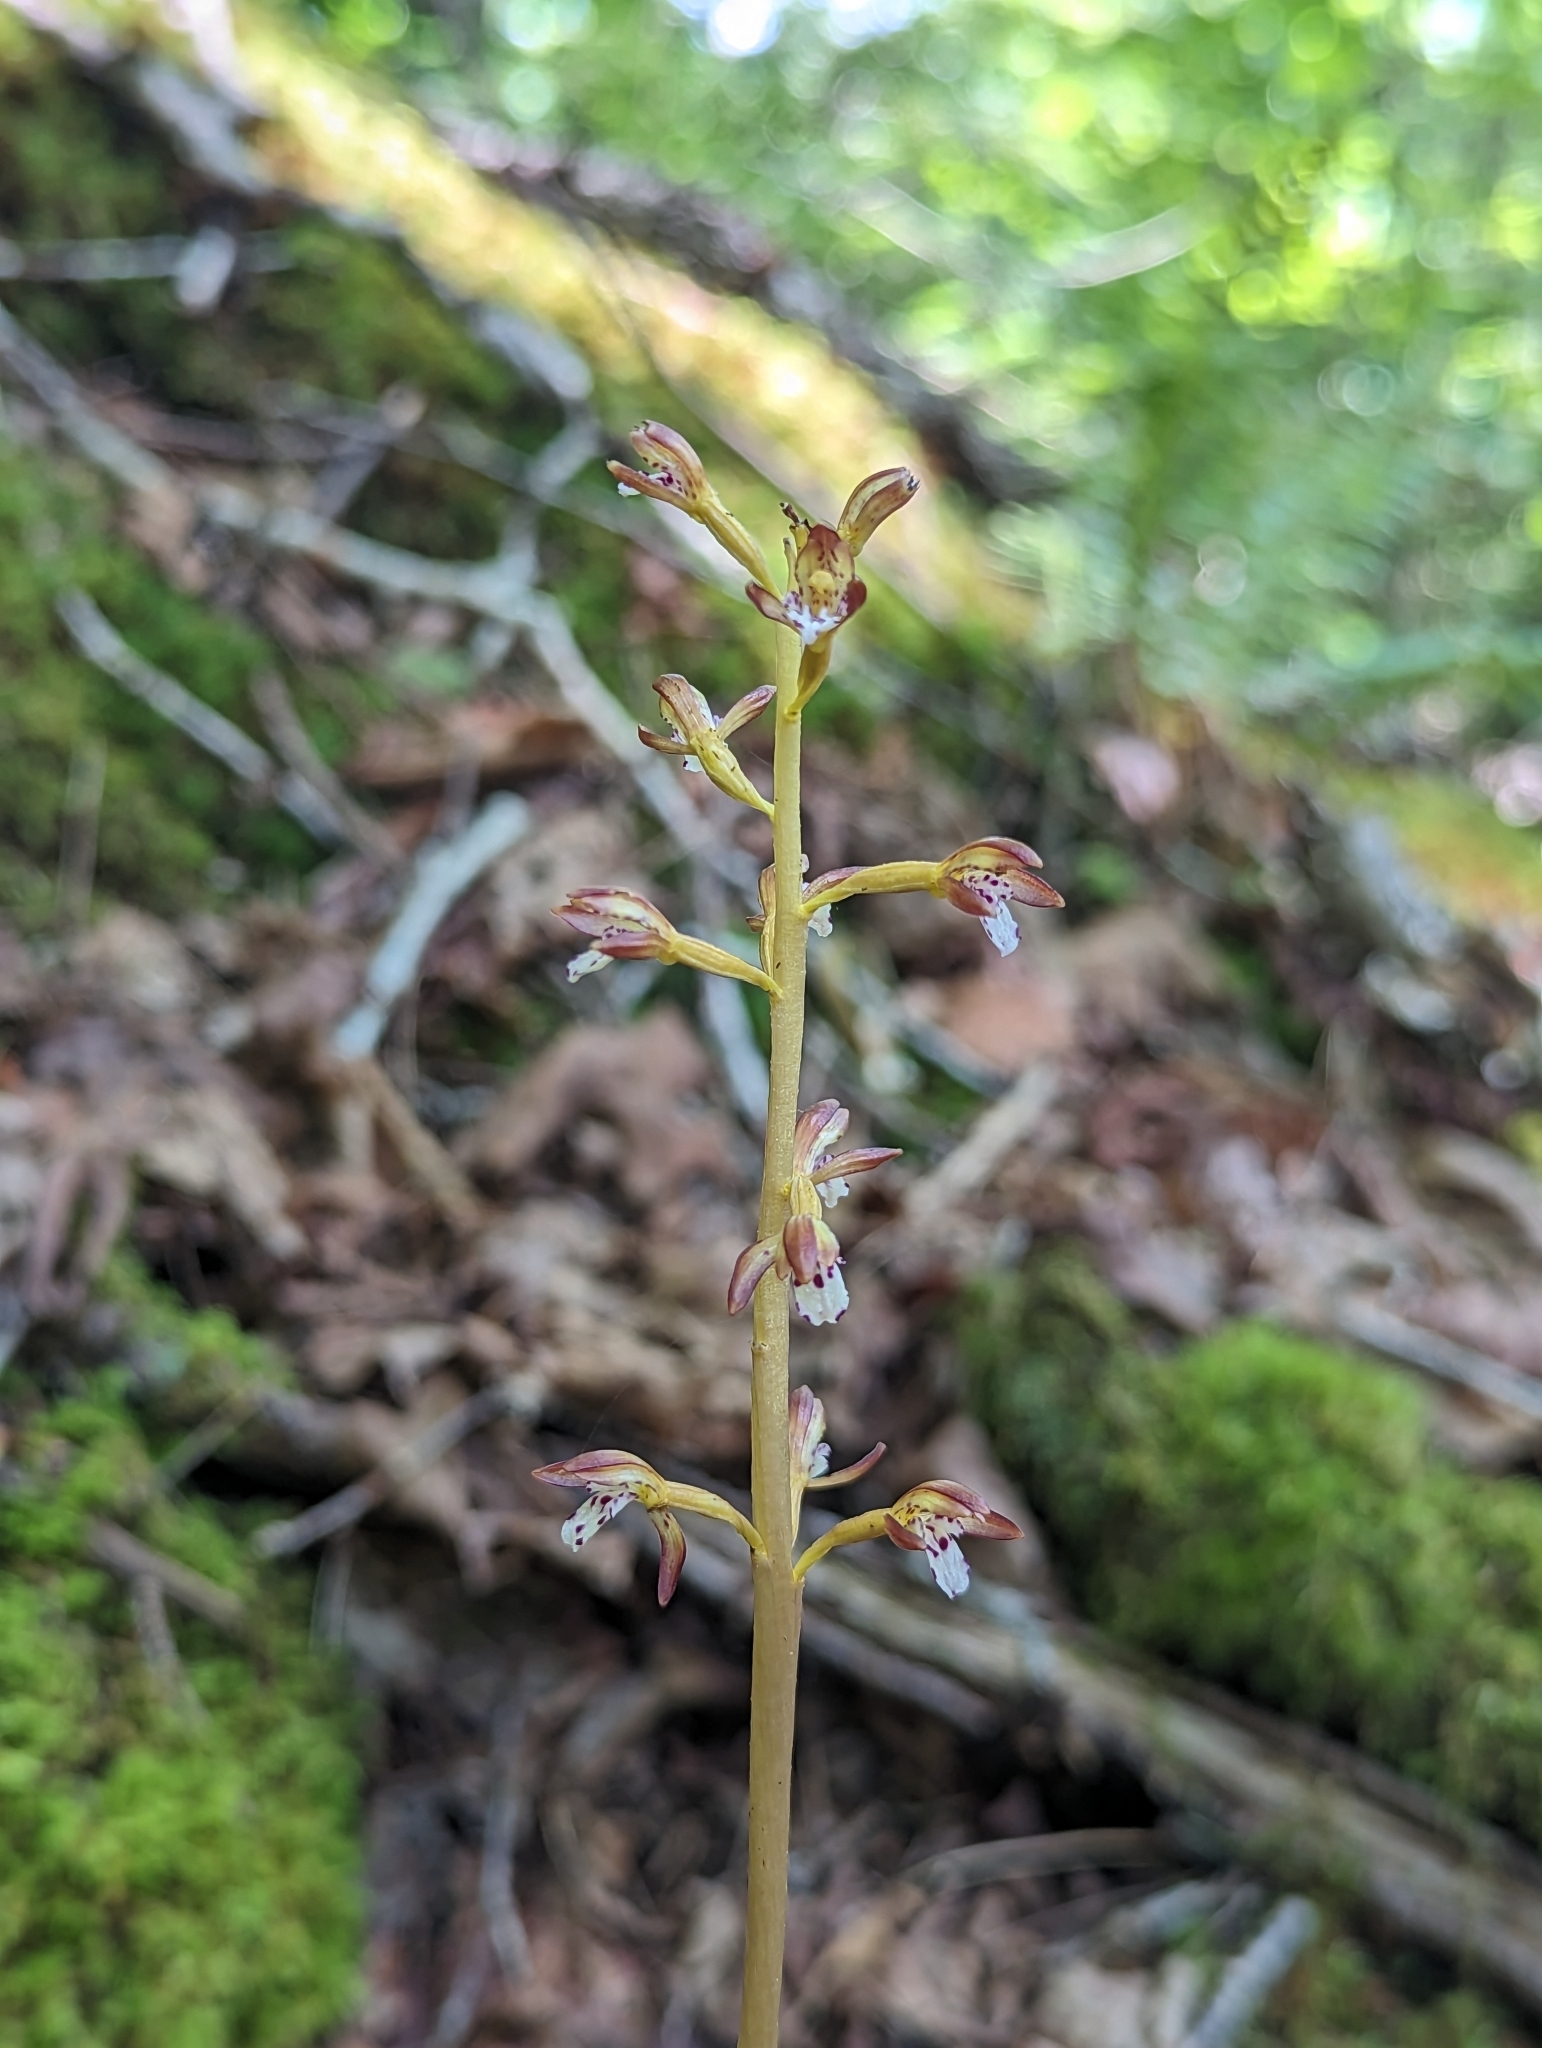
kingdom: Plantae
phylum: Tracheophyta
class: Liliopsida
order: Asparagales
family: Orchidaceae
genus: Corallorhiza
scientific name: Corallorhiza maculata
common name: Spotted coralroot
